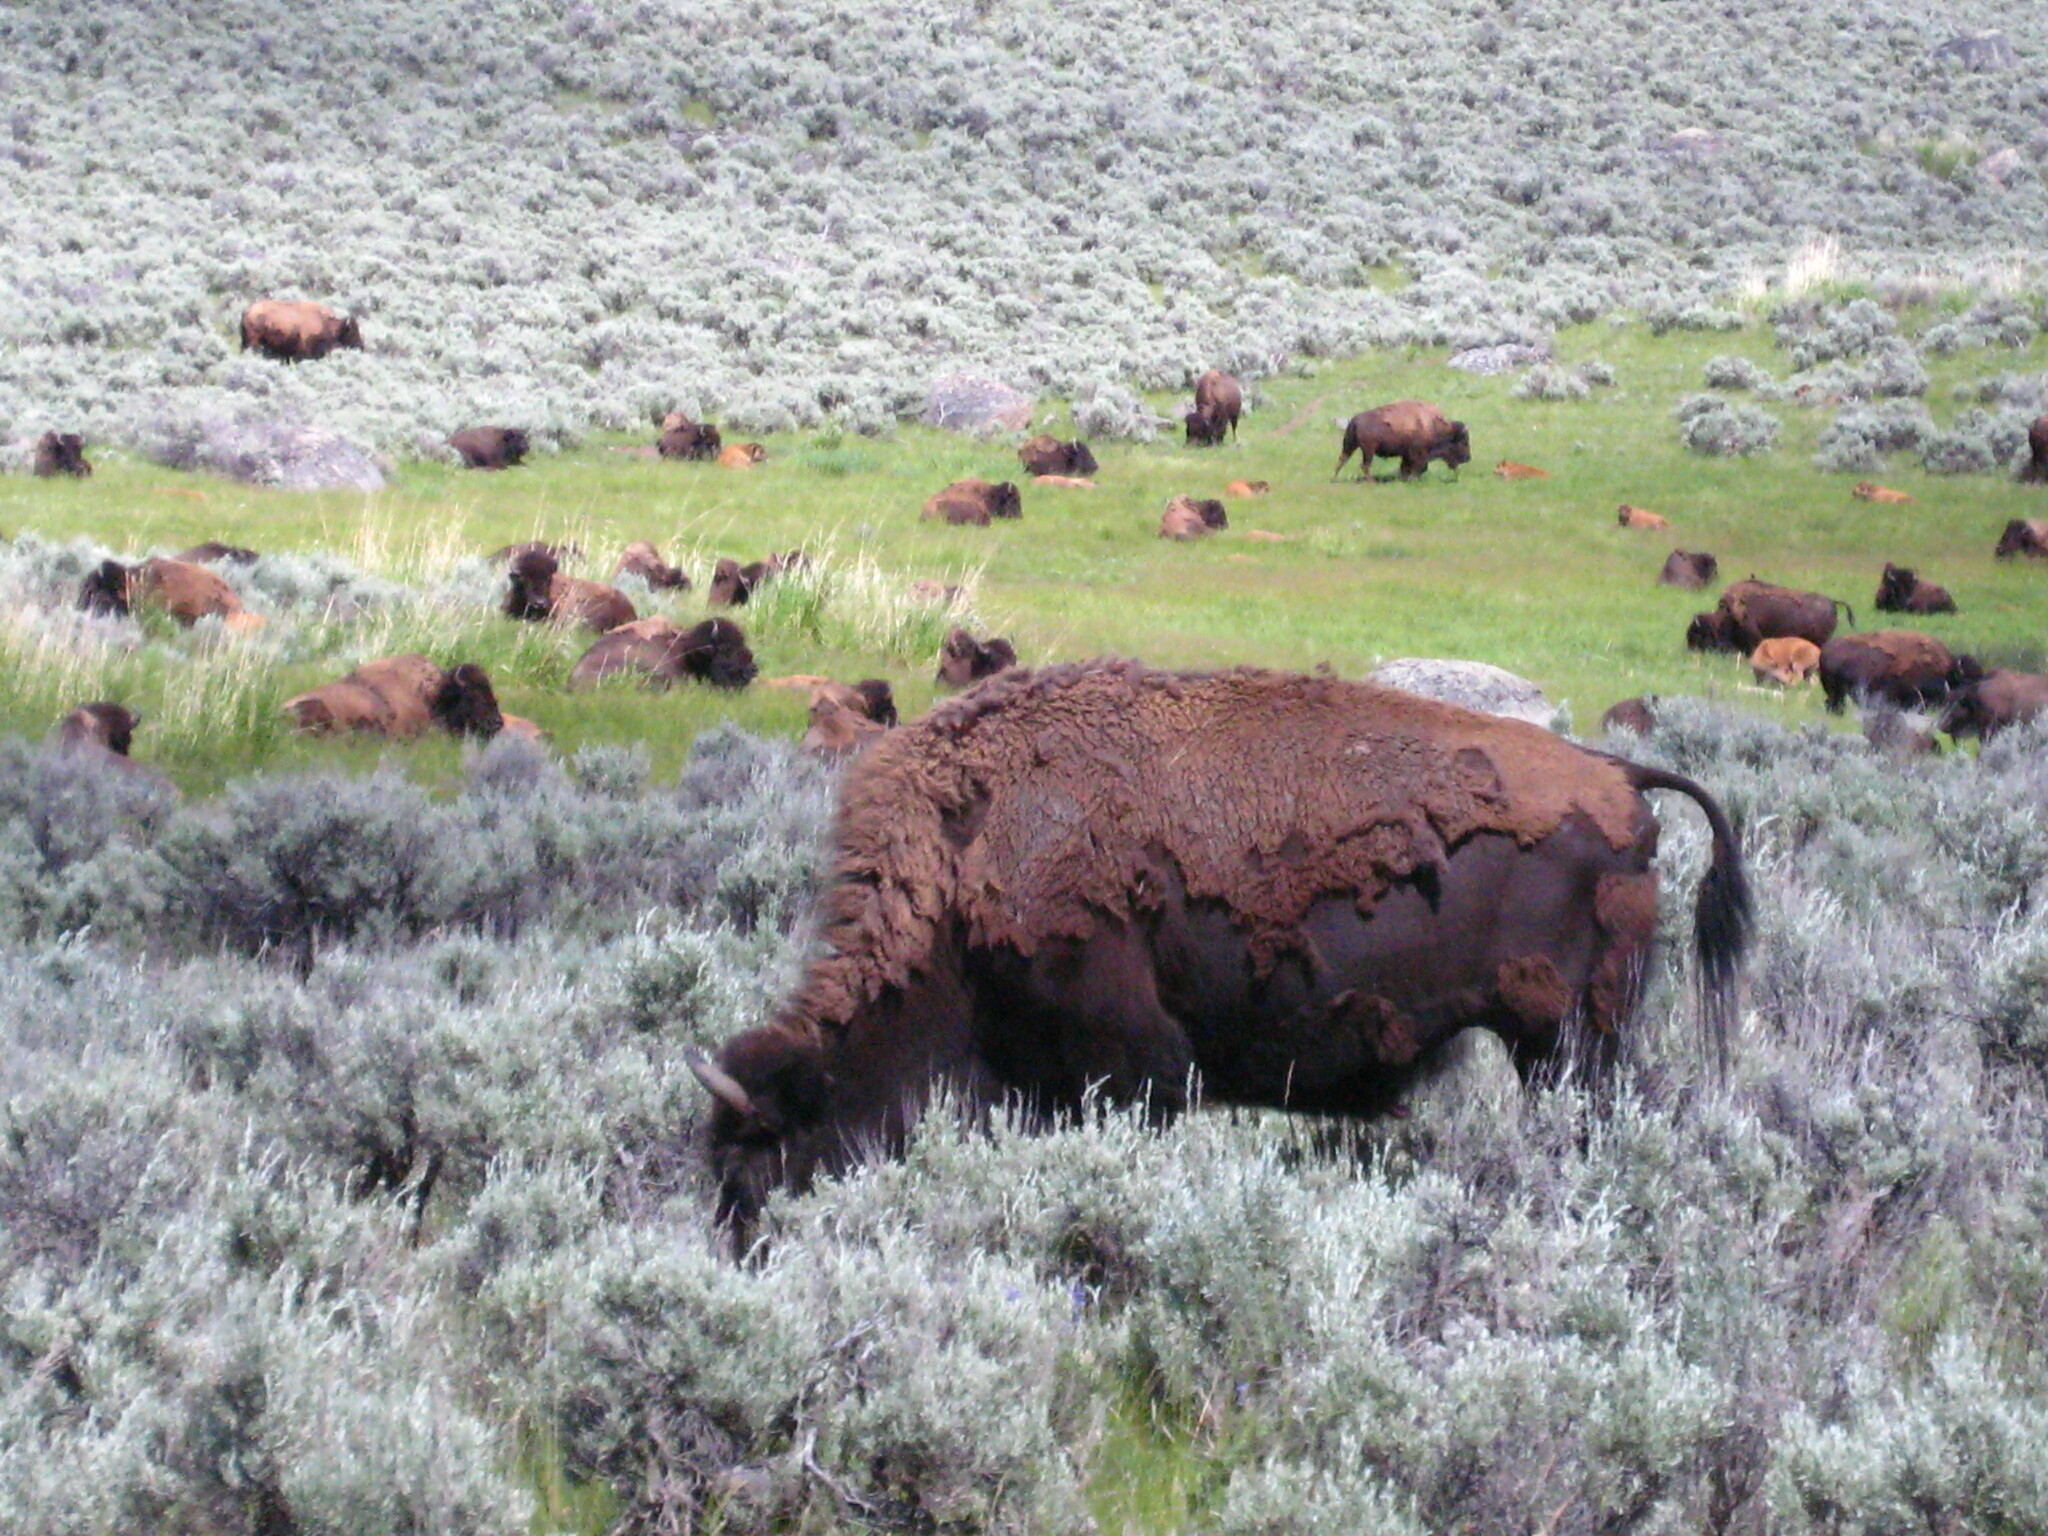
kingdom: Animalia
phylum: Chordata
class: Mammalia
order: Artiodactyla
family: Bovidae
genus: Bison
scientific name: Bison bison
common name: American bison
